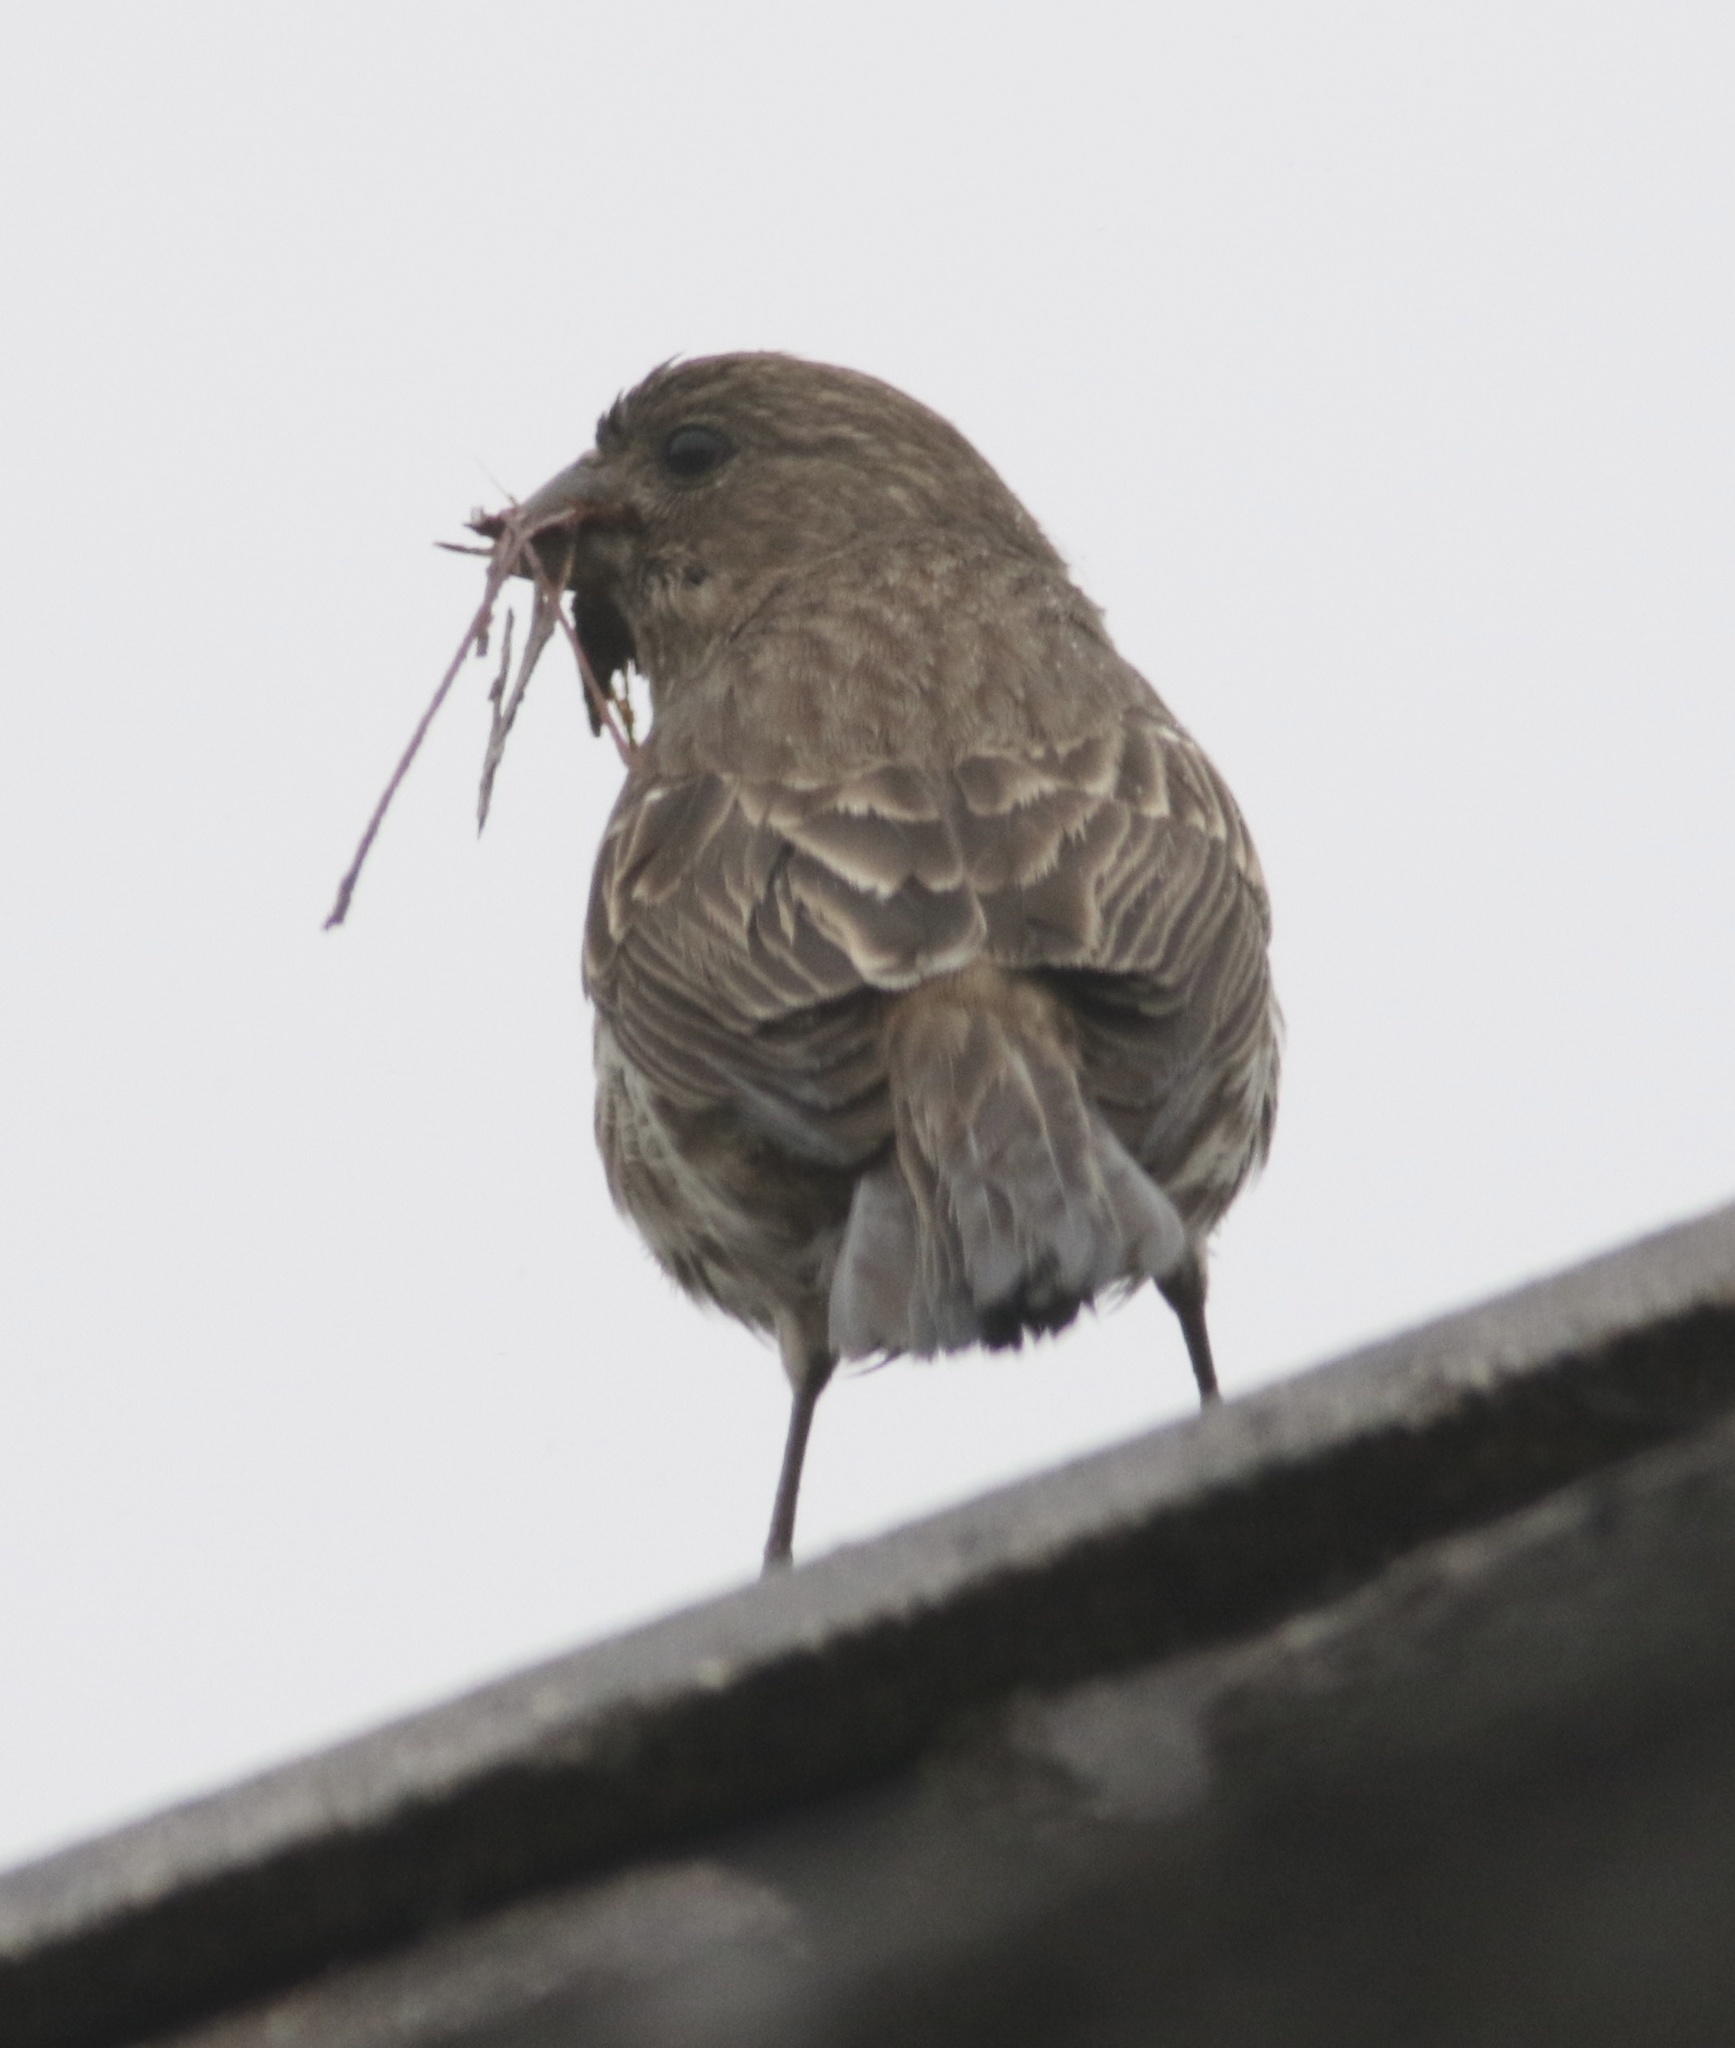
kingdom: Animalia
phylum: Chordata
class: Aves
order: Passeriformes
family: Fringillidae
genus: Haemorhous
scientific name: Haemorhous mexicanus
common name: House finch
